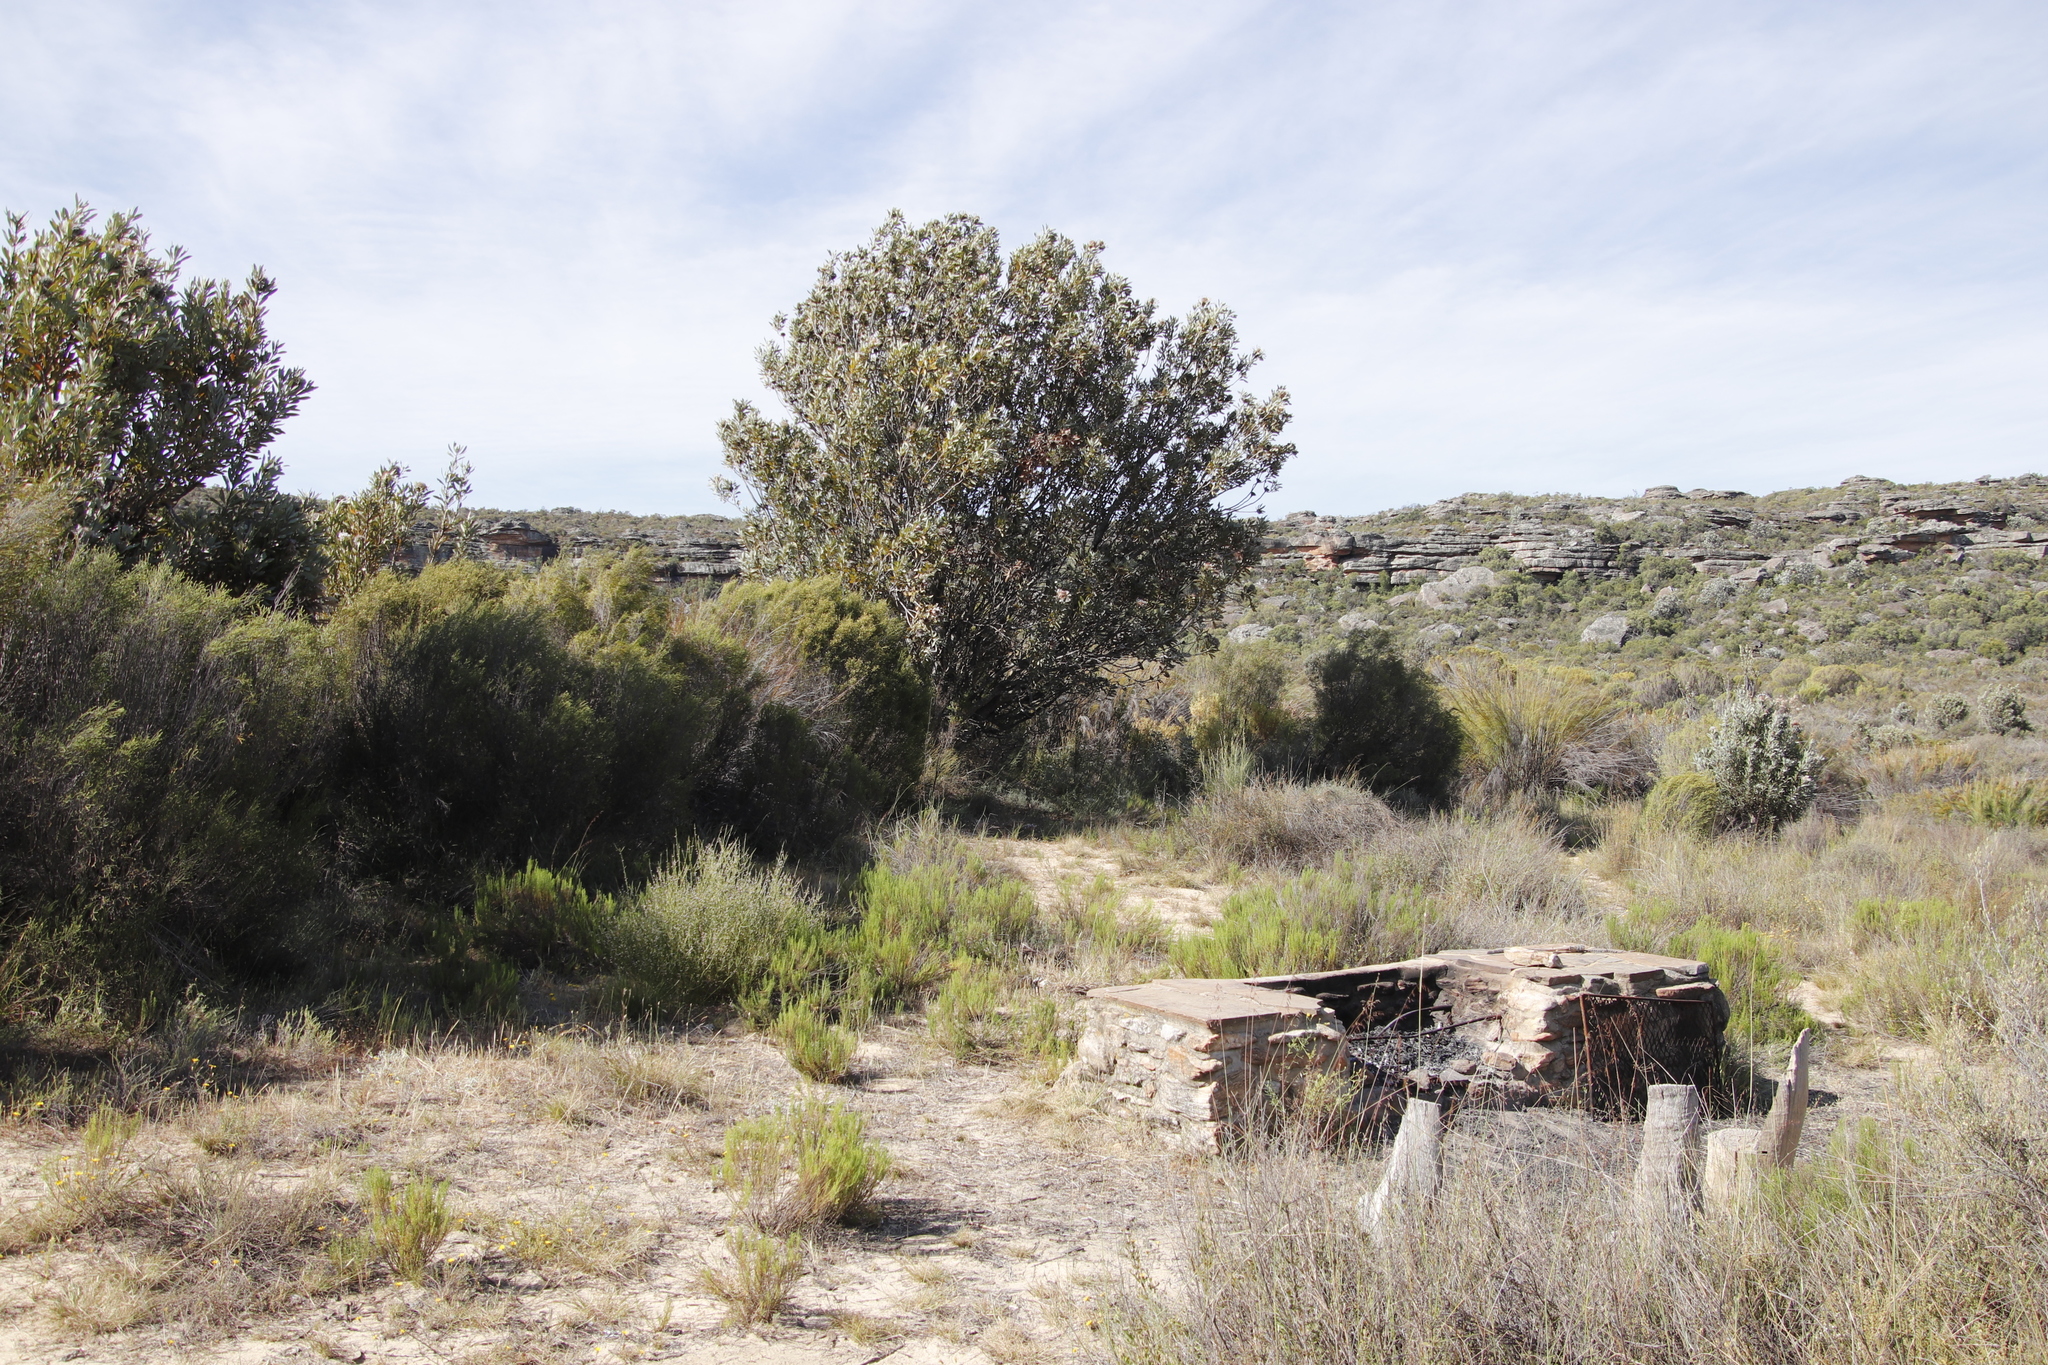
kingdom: Plantae
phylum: Tracheophyta
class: Magnoliopsida
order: Proteales
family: Proteaceae
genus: Protea
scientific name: Protea laurifolia
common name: Grey-leaf sugarbsh
